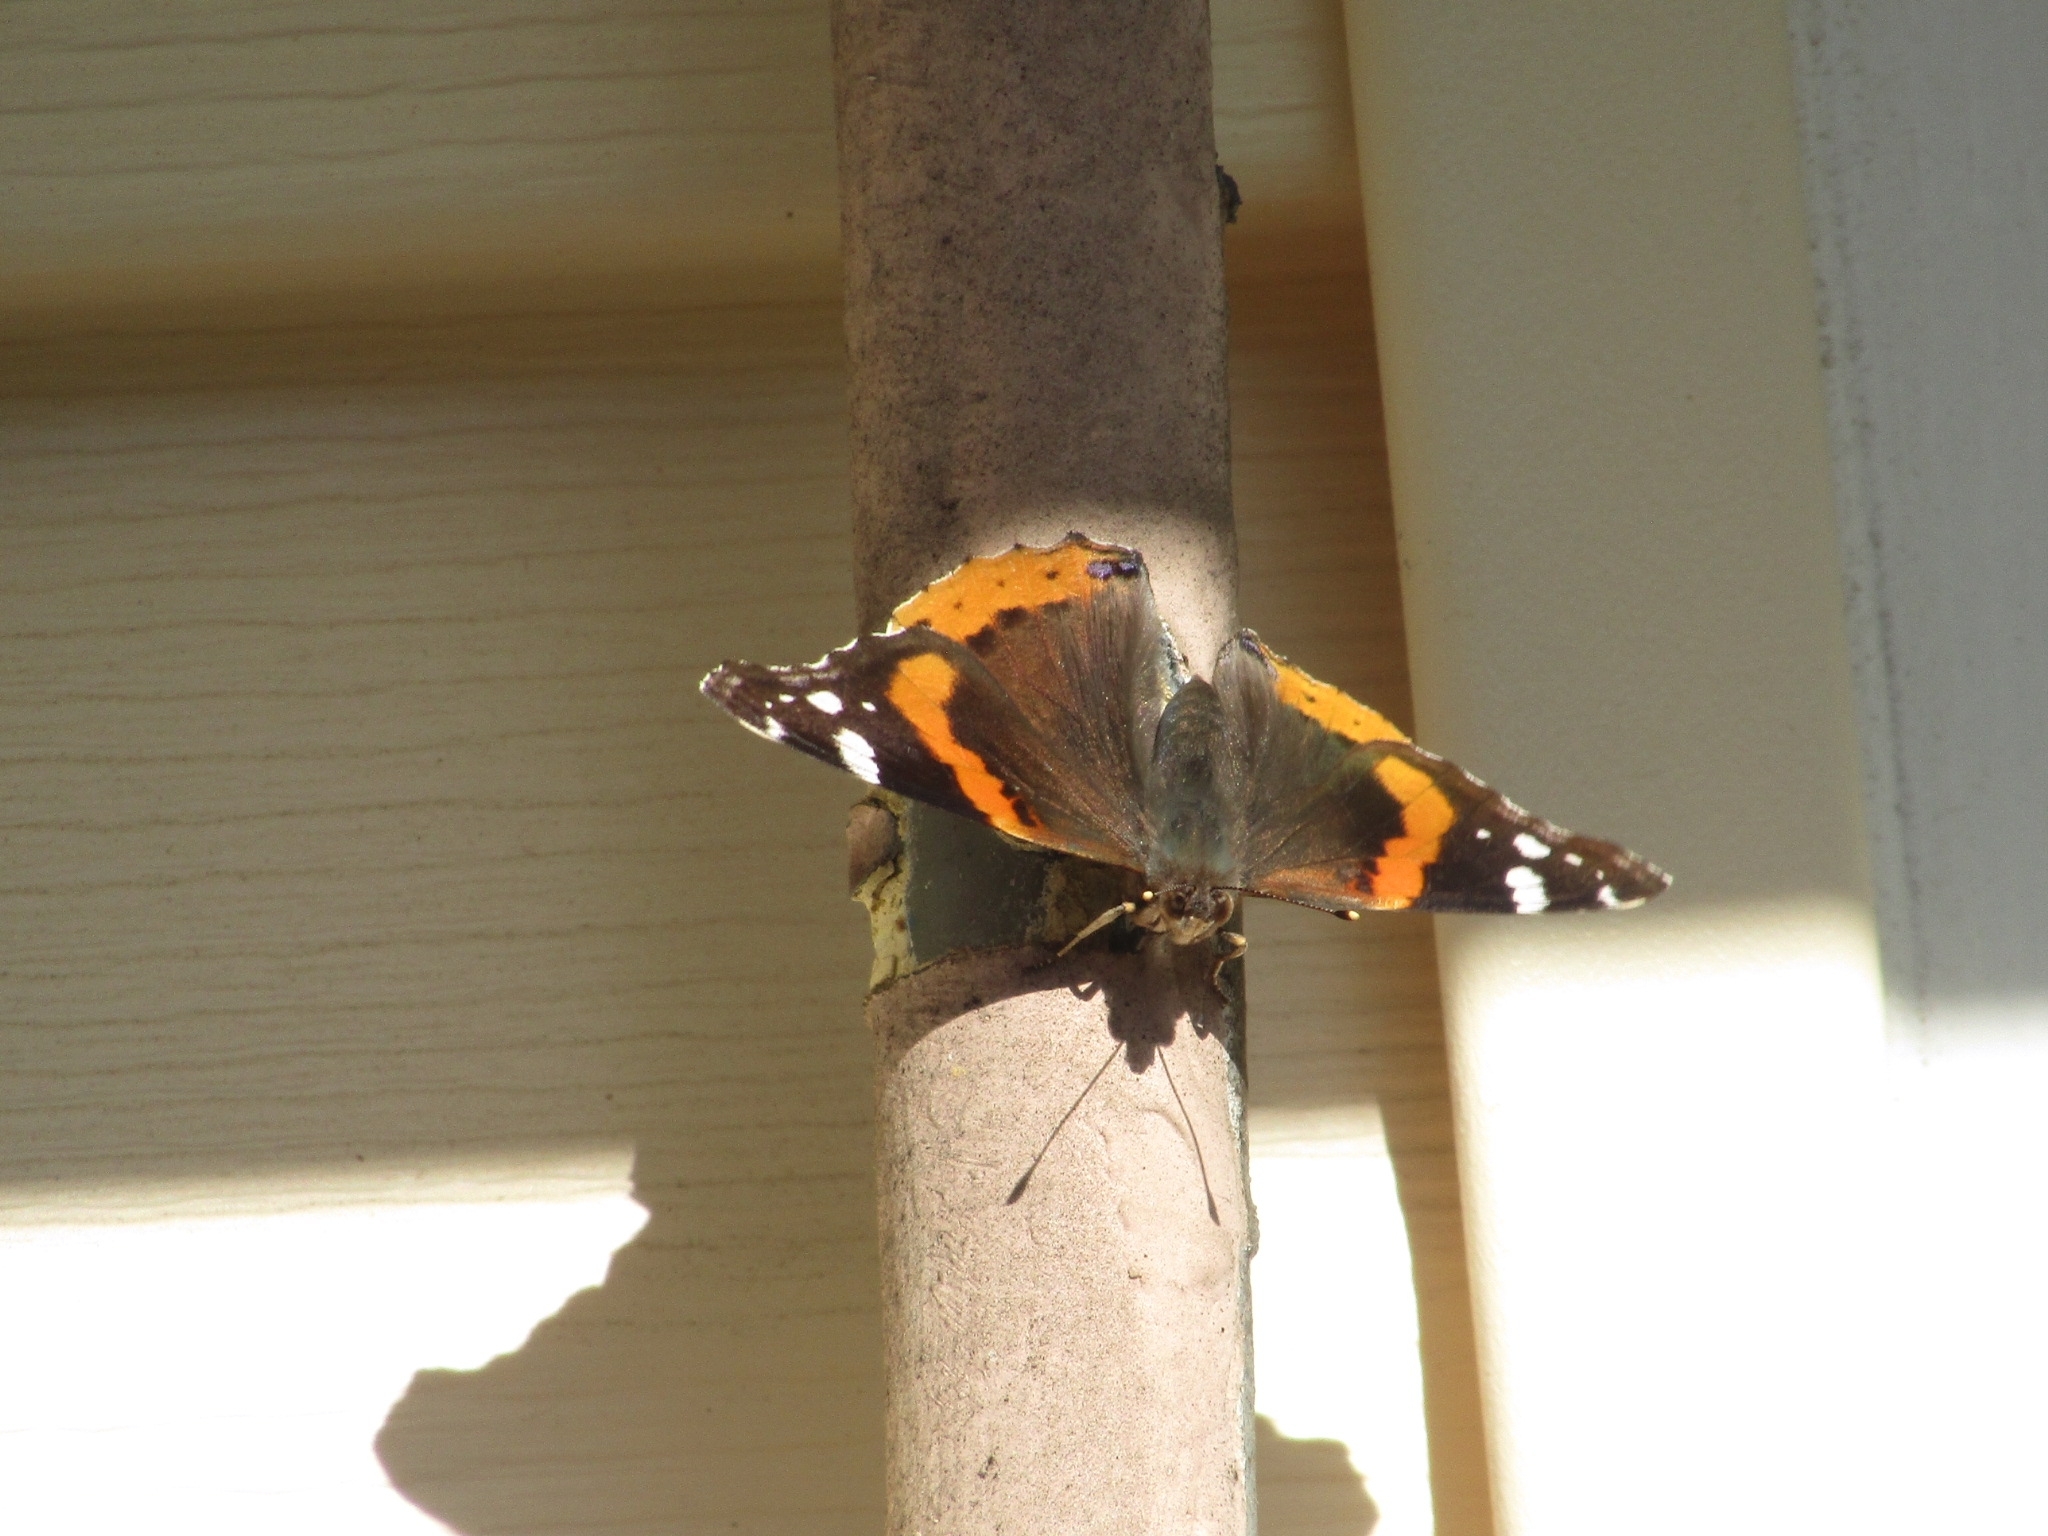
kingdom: Animalia
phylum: Arthropoda
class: Insecta
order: Lepidoptera
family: Nymphalidae
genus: Vanessa
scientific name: Vanessa atalanta
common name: Red admiral
